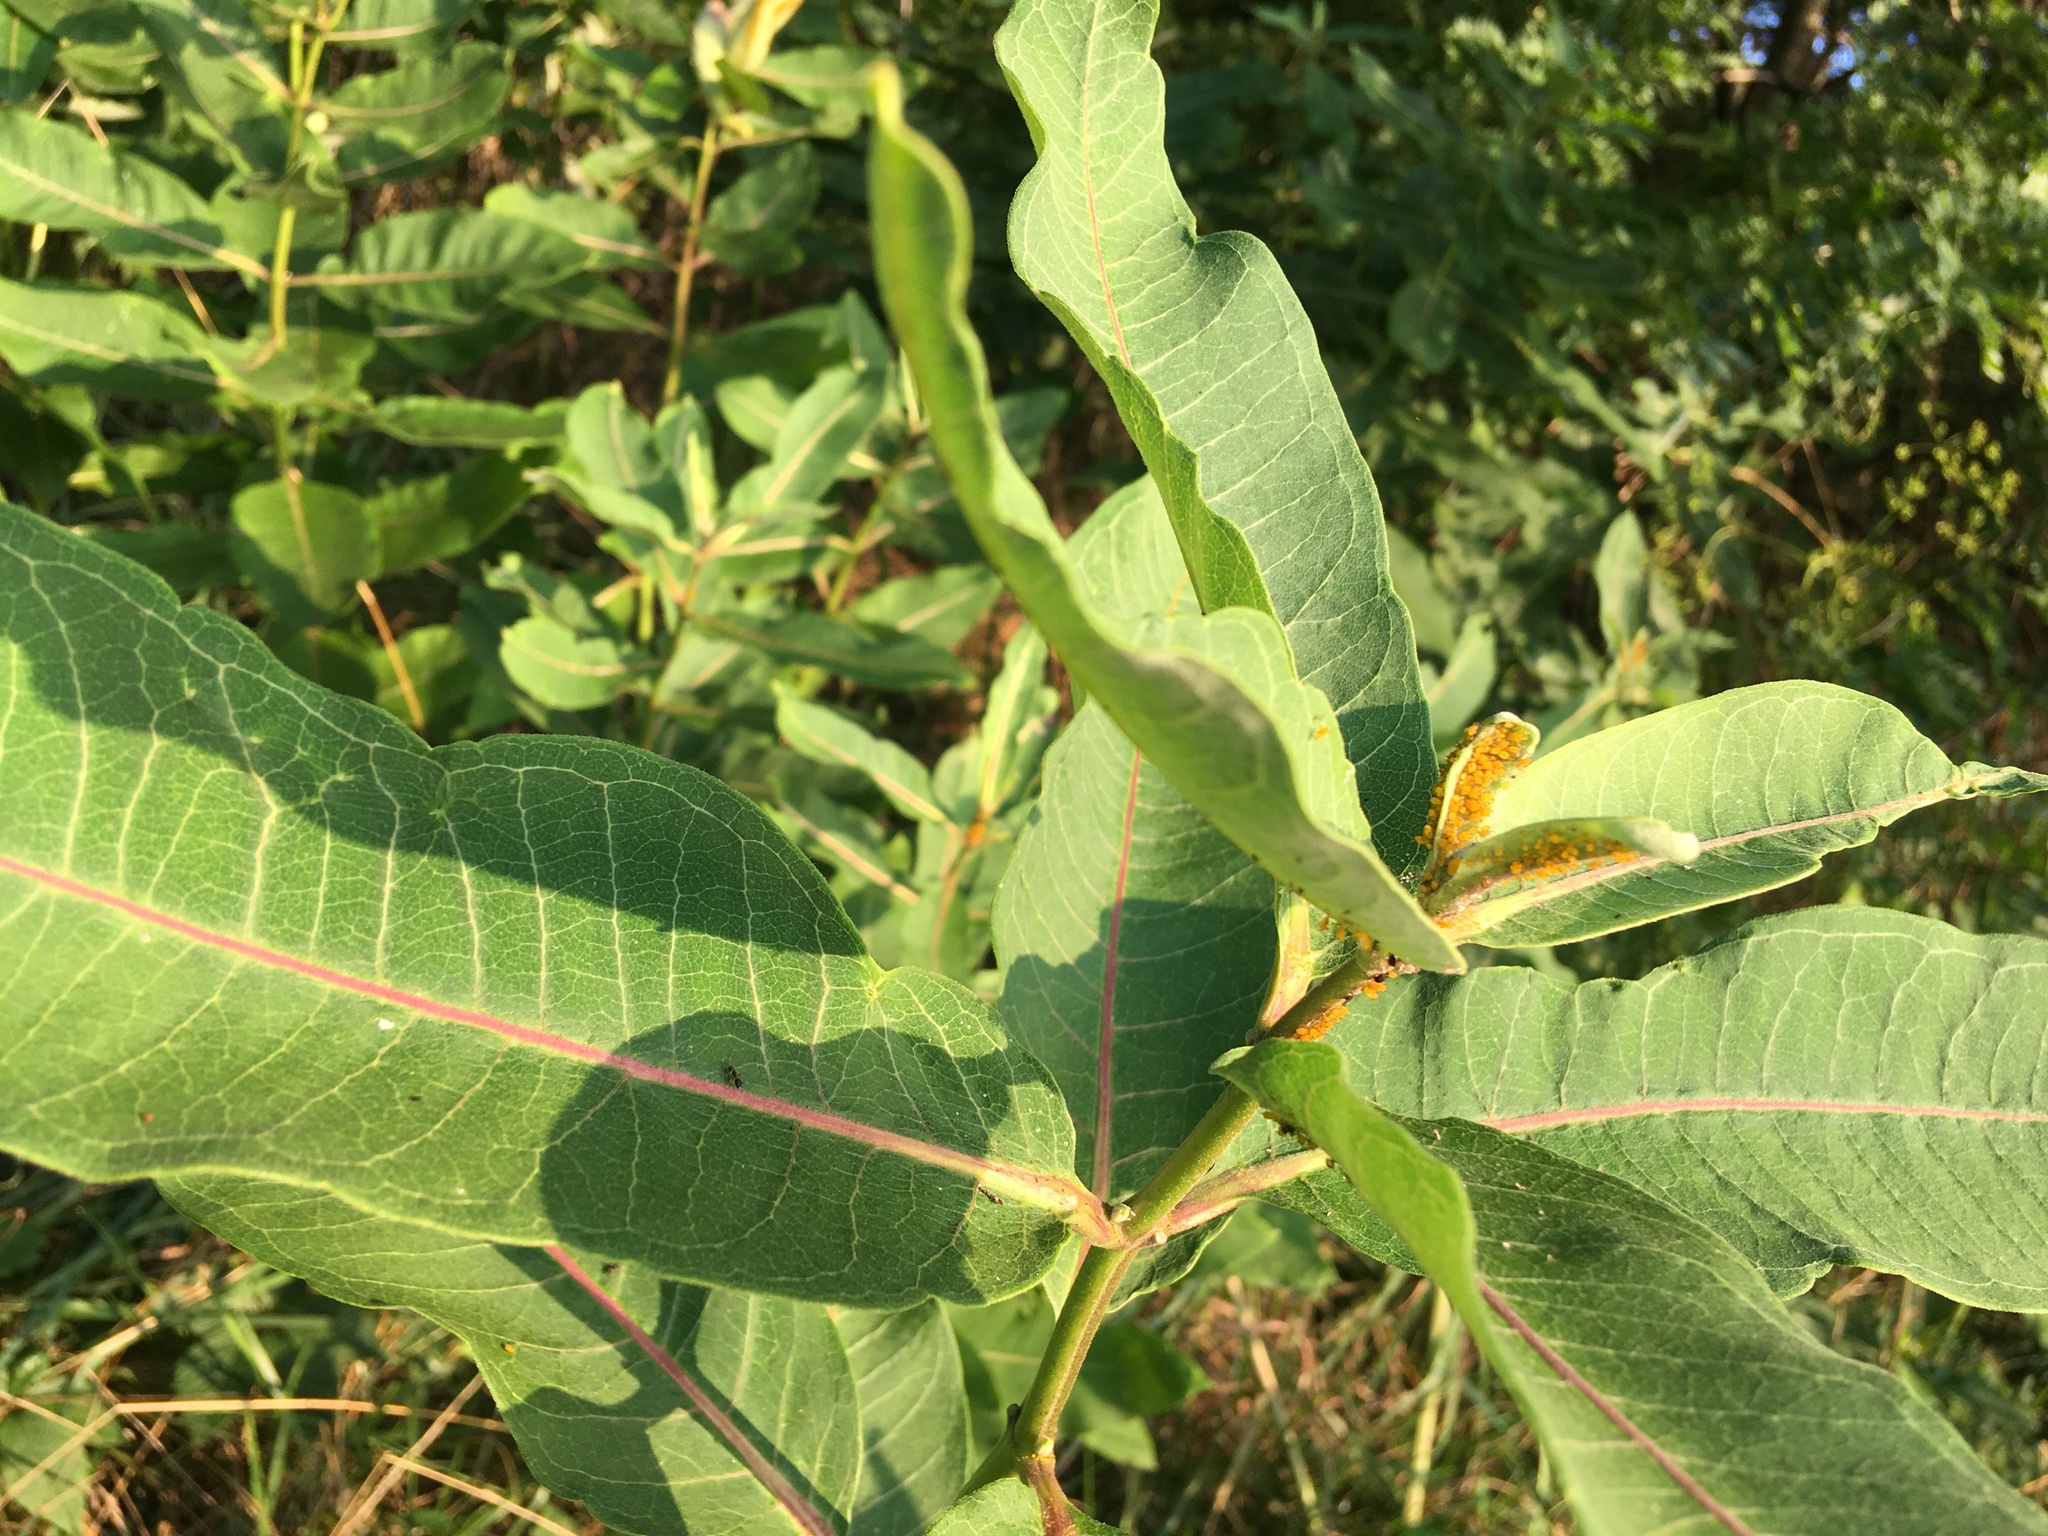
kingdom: Plantae
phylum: Tracheophyta
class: Magnoliopsida
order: Gentianales
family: Apocynaceae
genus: Asclepias
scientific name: Asclepias syriaca
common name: Common milkweed
